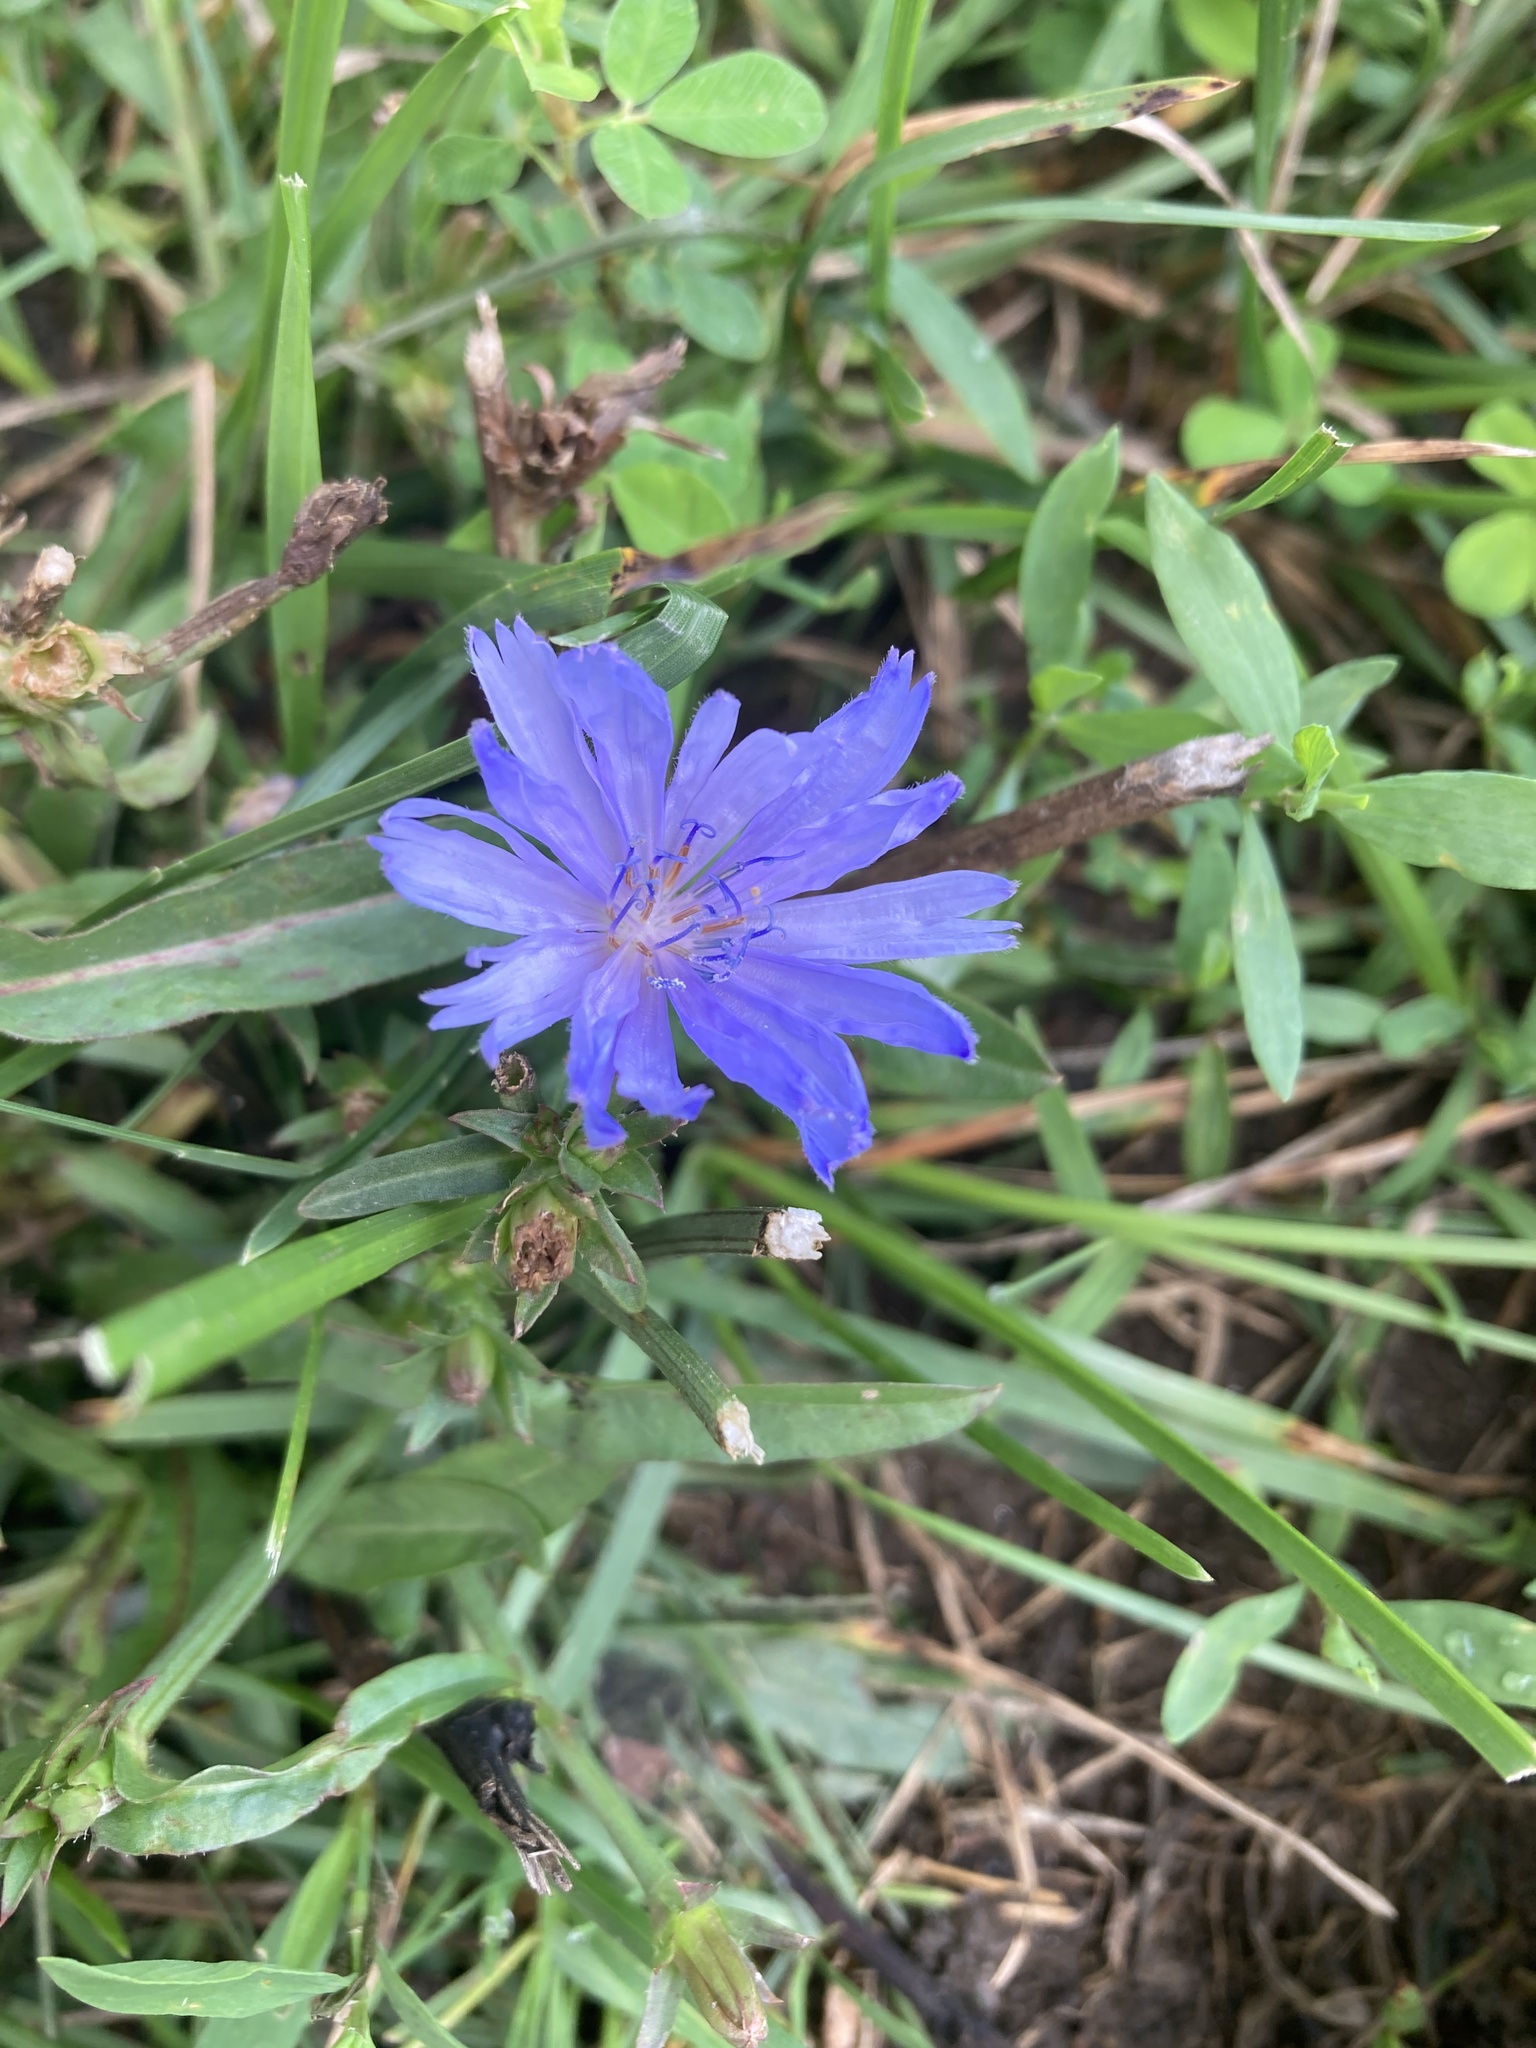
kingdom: Plantae
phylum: Tracheophyta
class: Magnoliopsida
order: Asterales
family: Asteraceae
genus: Cichorium
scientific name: Cichorium intybus
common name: Chicory
